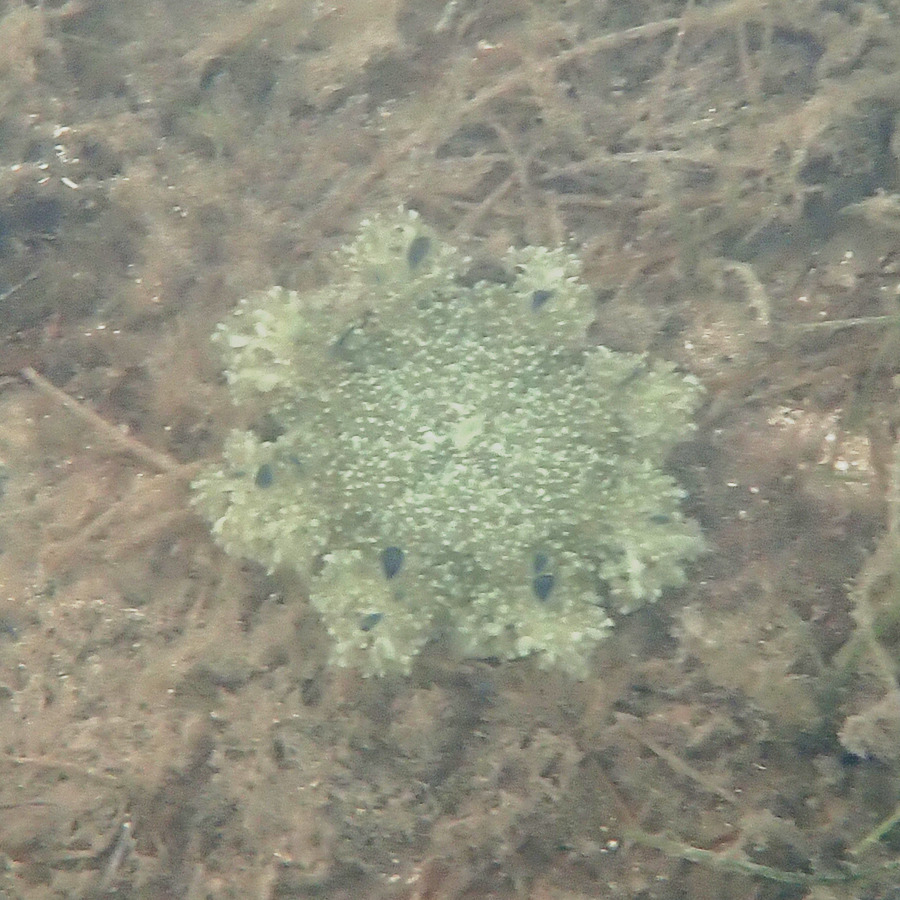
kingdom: Animalia
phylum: Cnidaria
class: Scyphozoa
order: Rhizostomeae
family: Cassiopeidae
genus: Cassiopea
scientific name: Cassiopea andromeda
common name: Upside-down jellyfish
